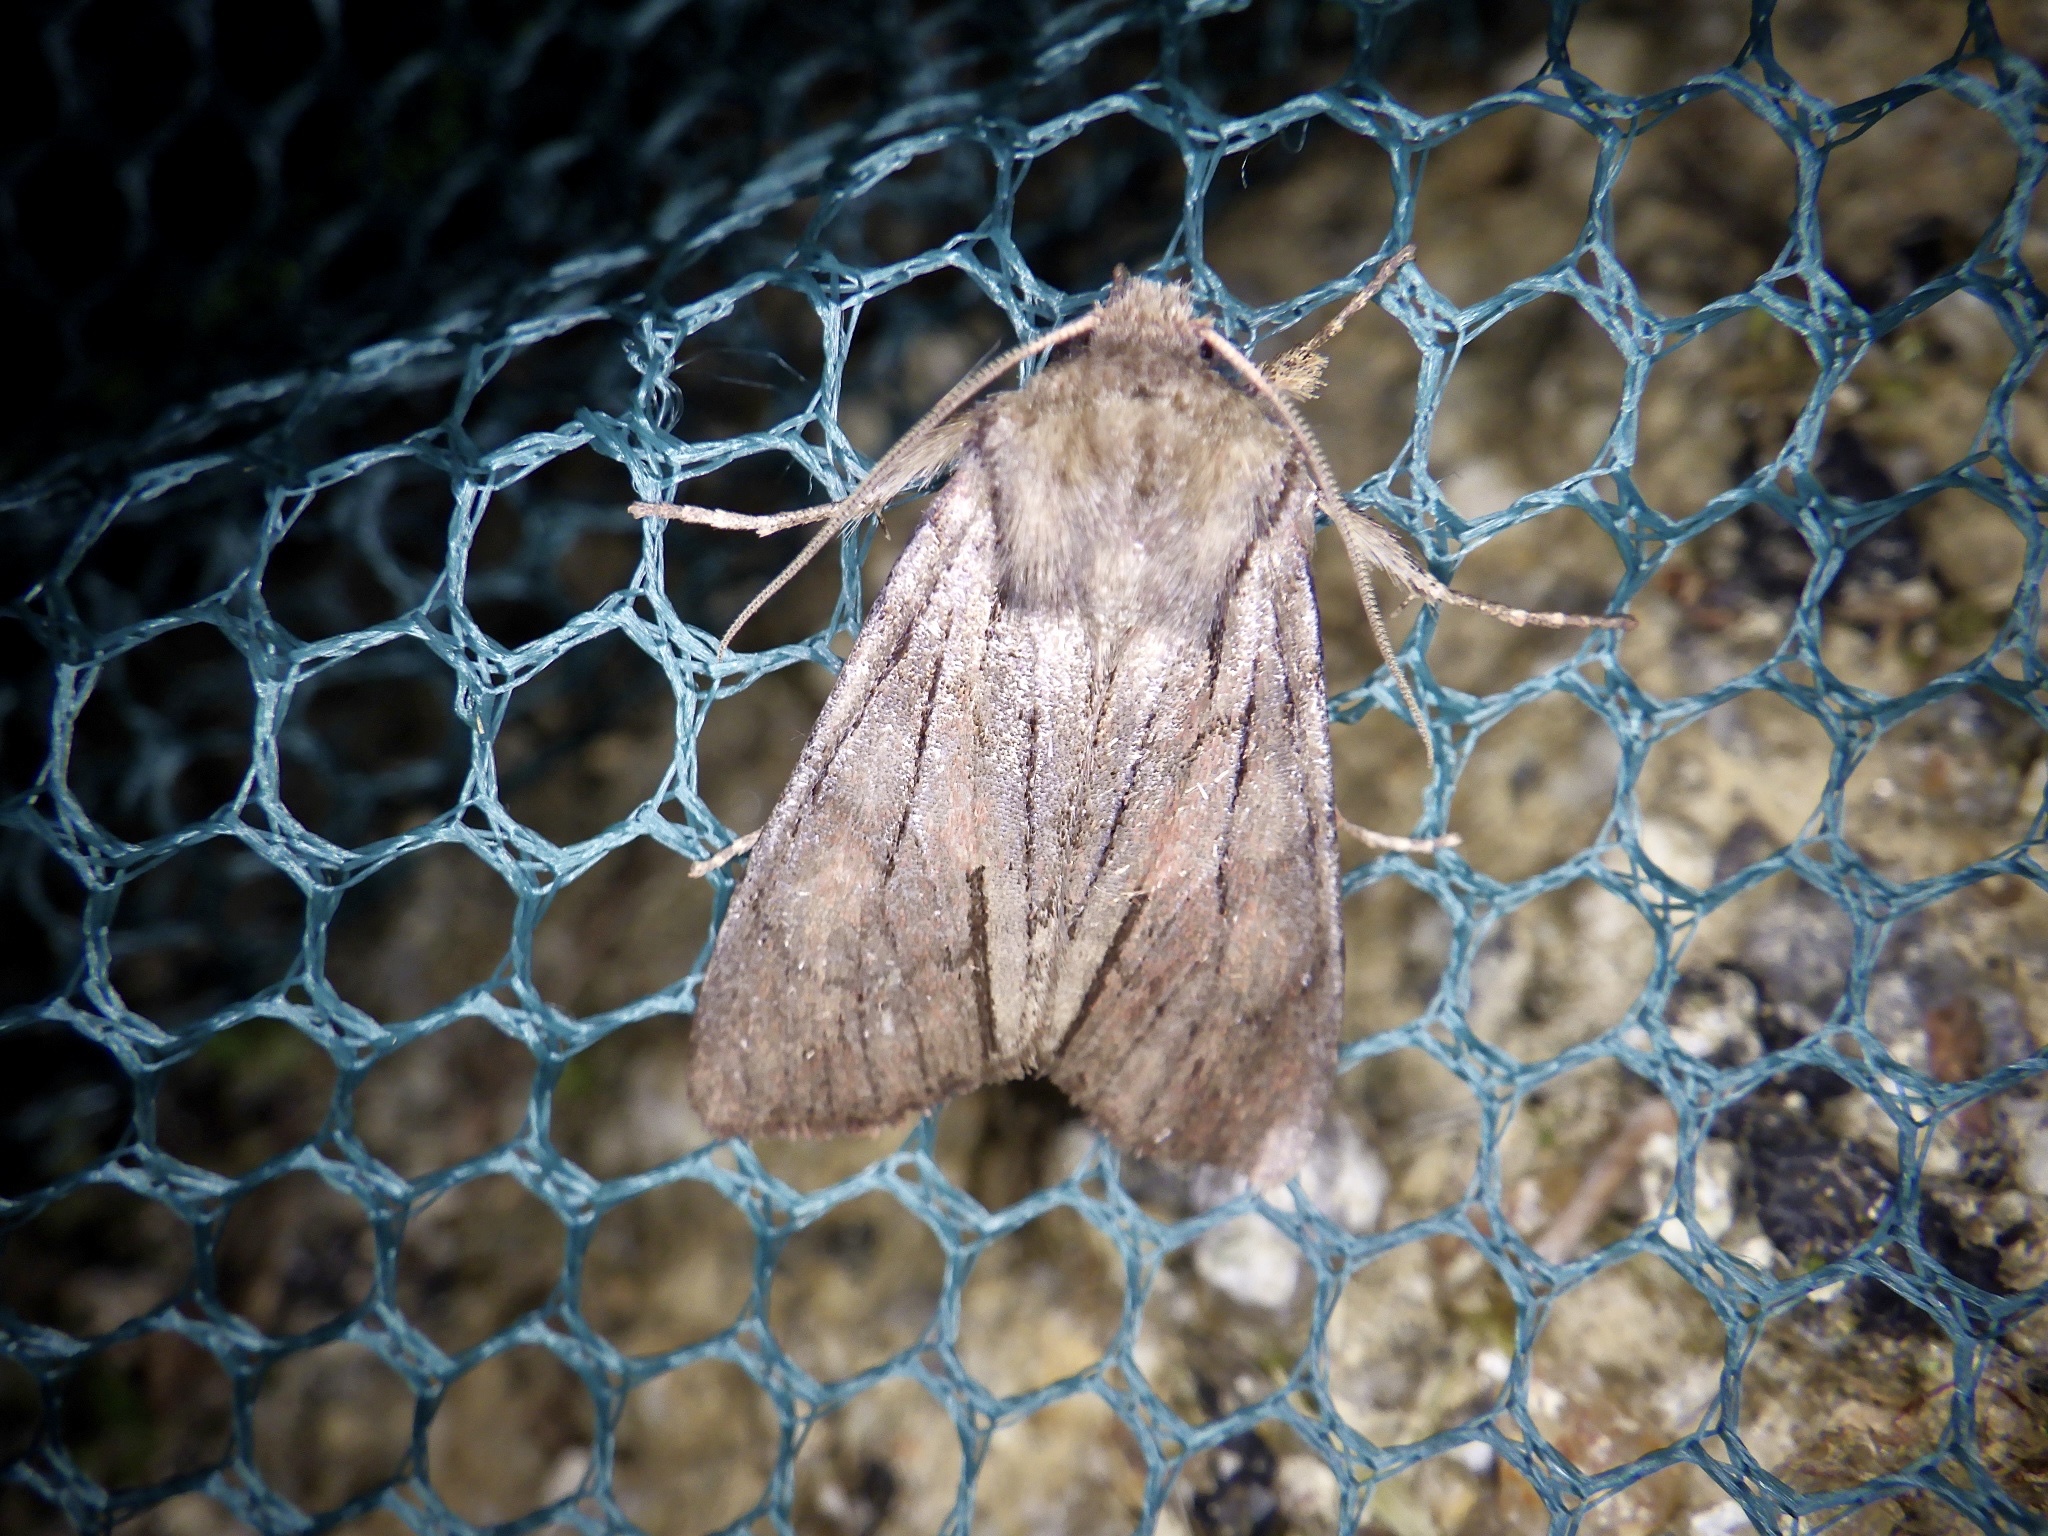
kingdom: Animalia
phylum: Arthropoda
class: Insecta
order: Lepidoptera
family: Noctuidae
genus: Egira
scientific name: Egira saxea
